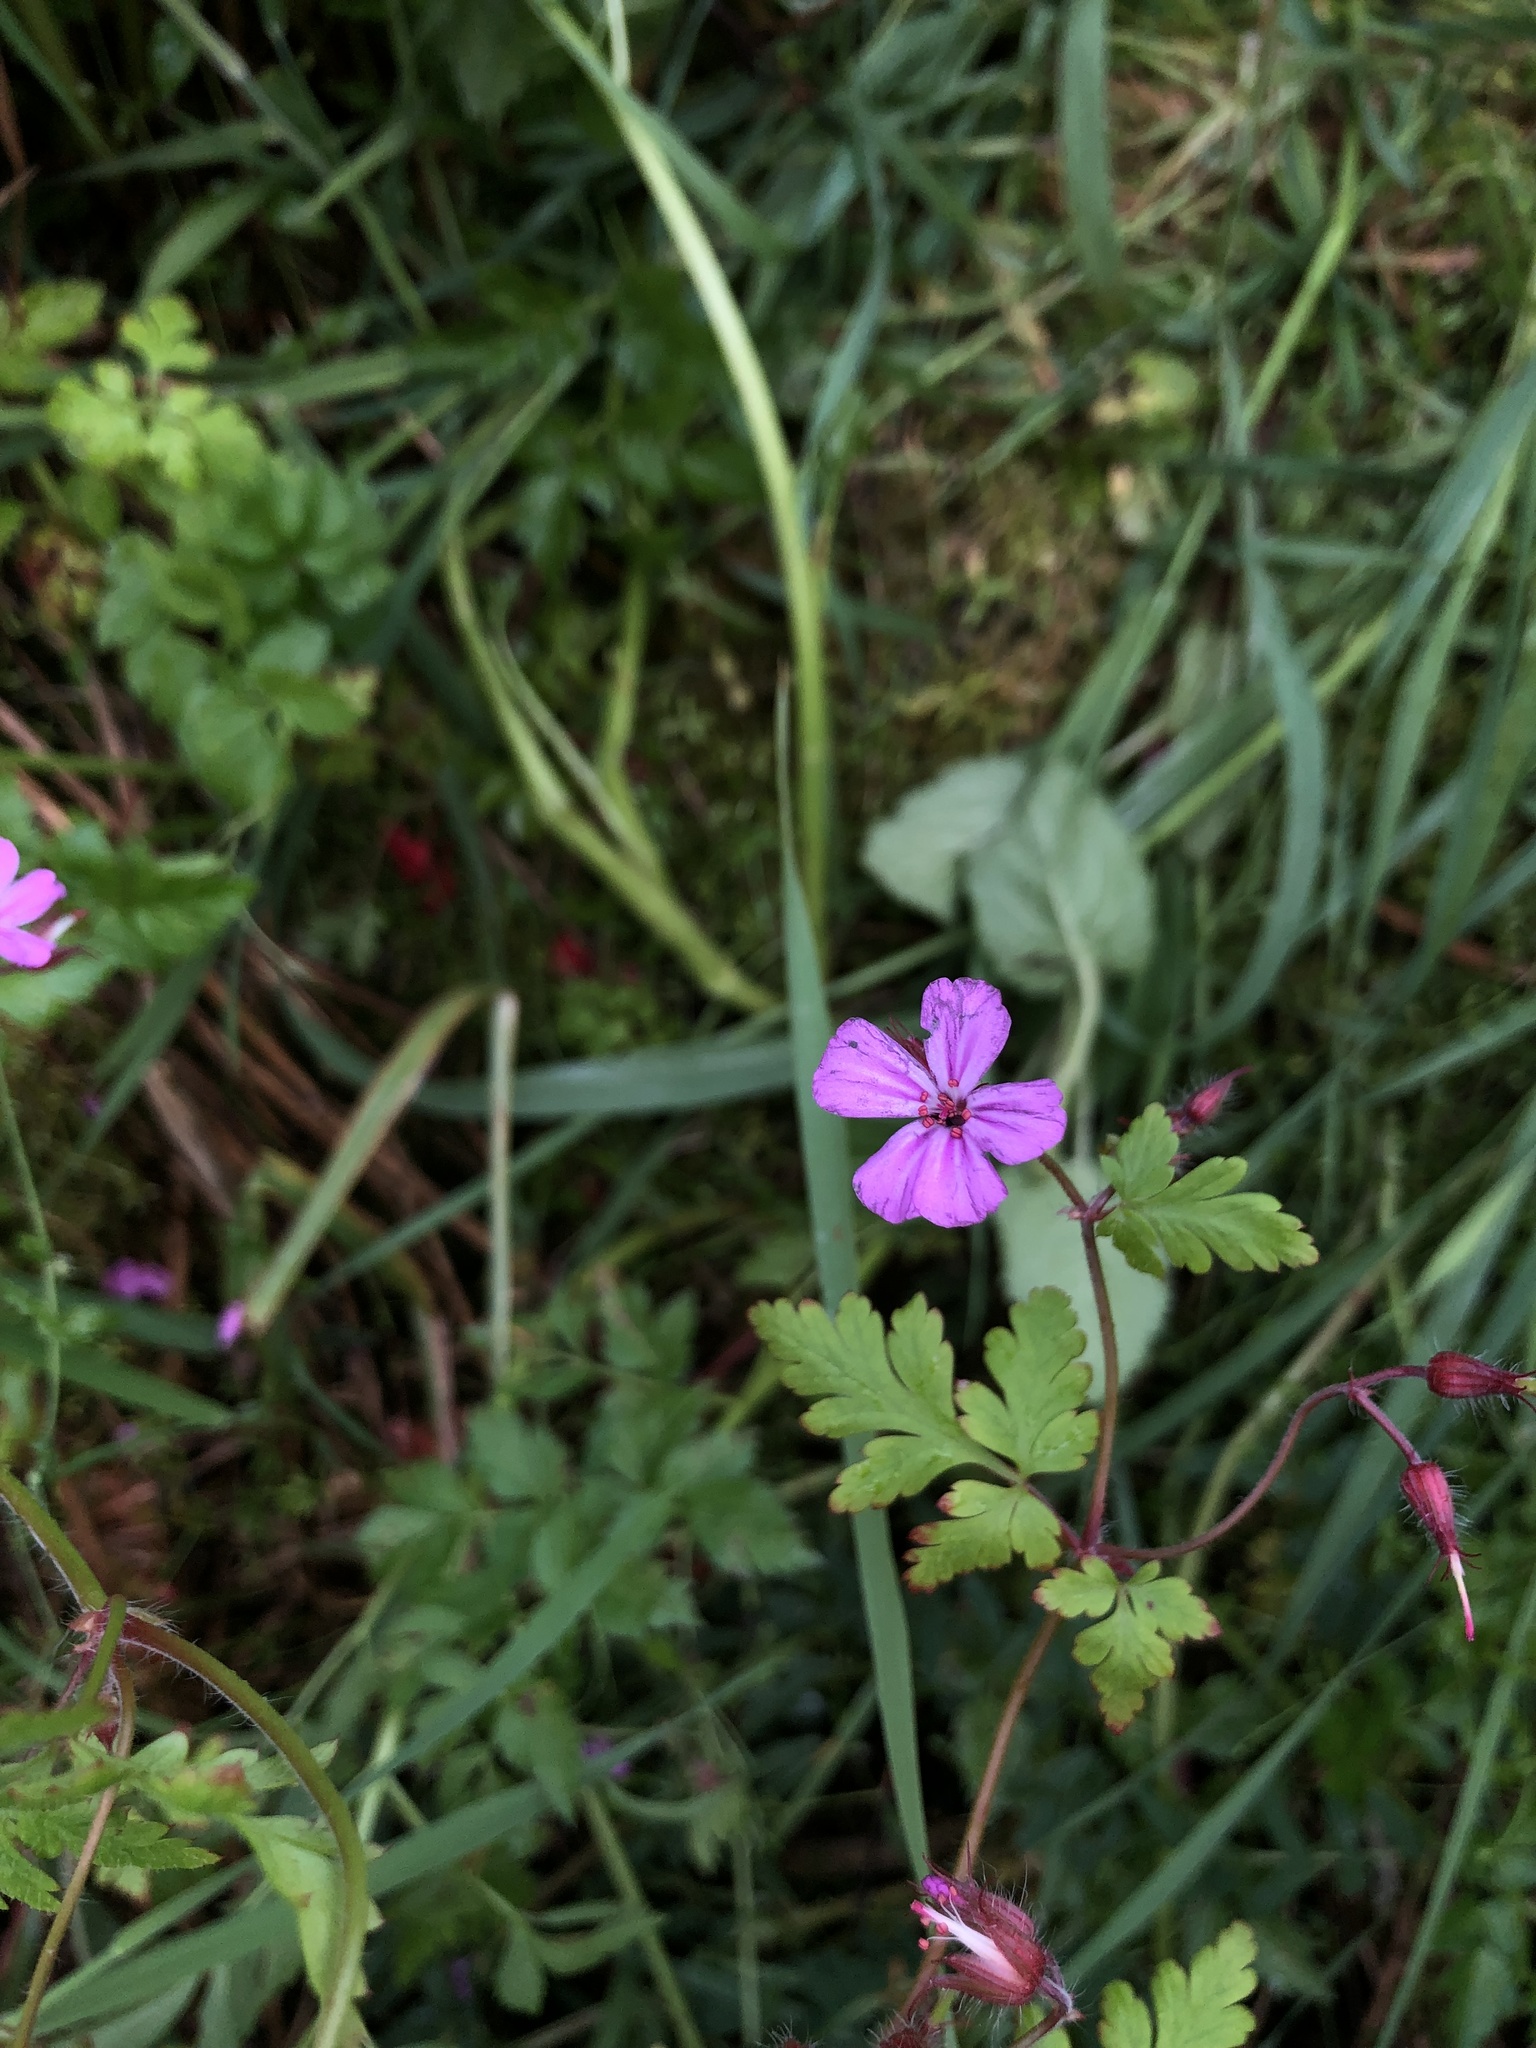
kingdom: Plantae
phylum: Tracheophyta
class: Magnoliopsida
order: Geraniales
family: Geraniaceae
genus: Geranium
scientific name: Geranium robertianum
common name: Herb-robert
